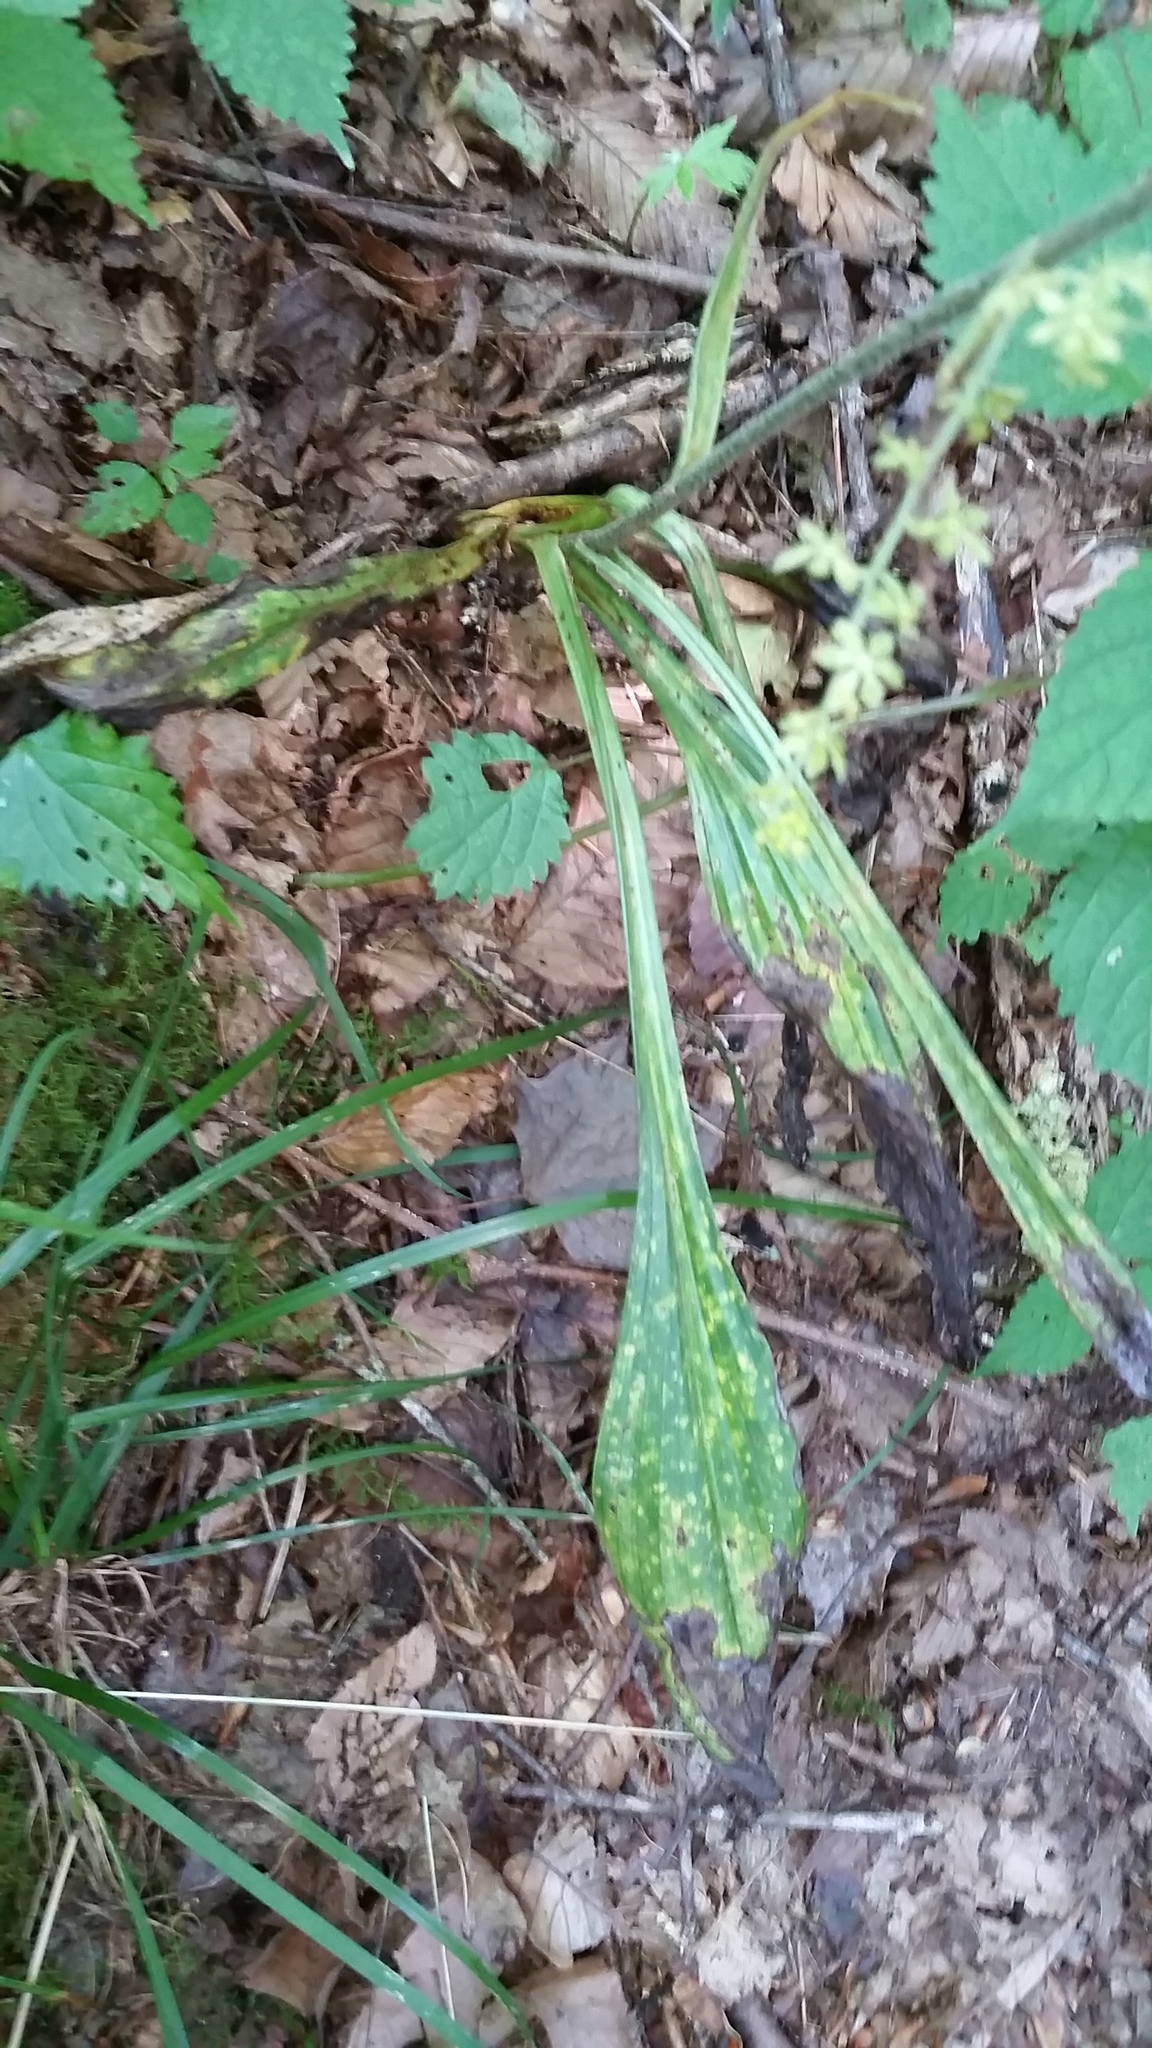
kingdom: Plantae
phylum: Tracheophyta
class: Liliopsida
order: Liliales
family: Melanthiaceae
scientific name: Melanthiaceae
